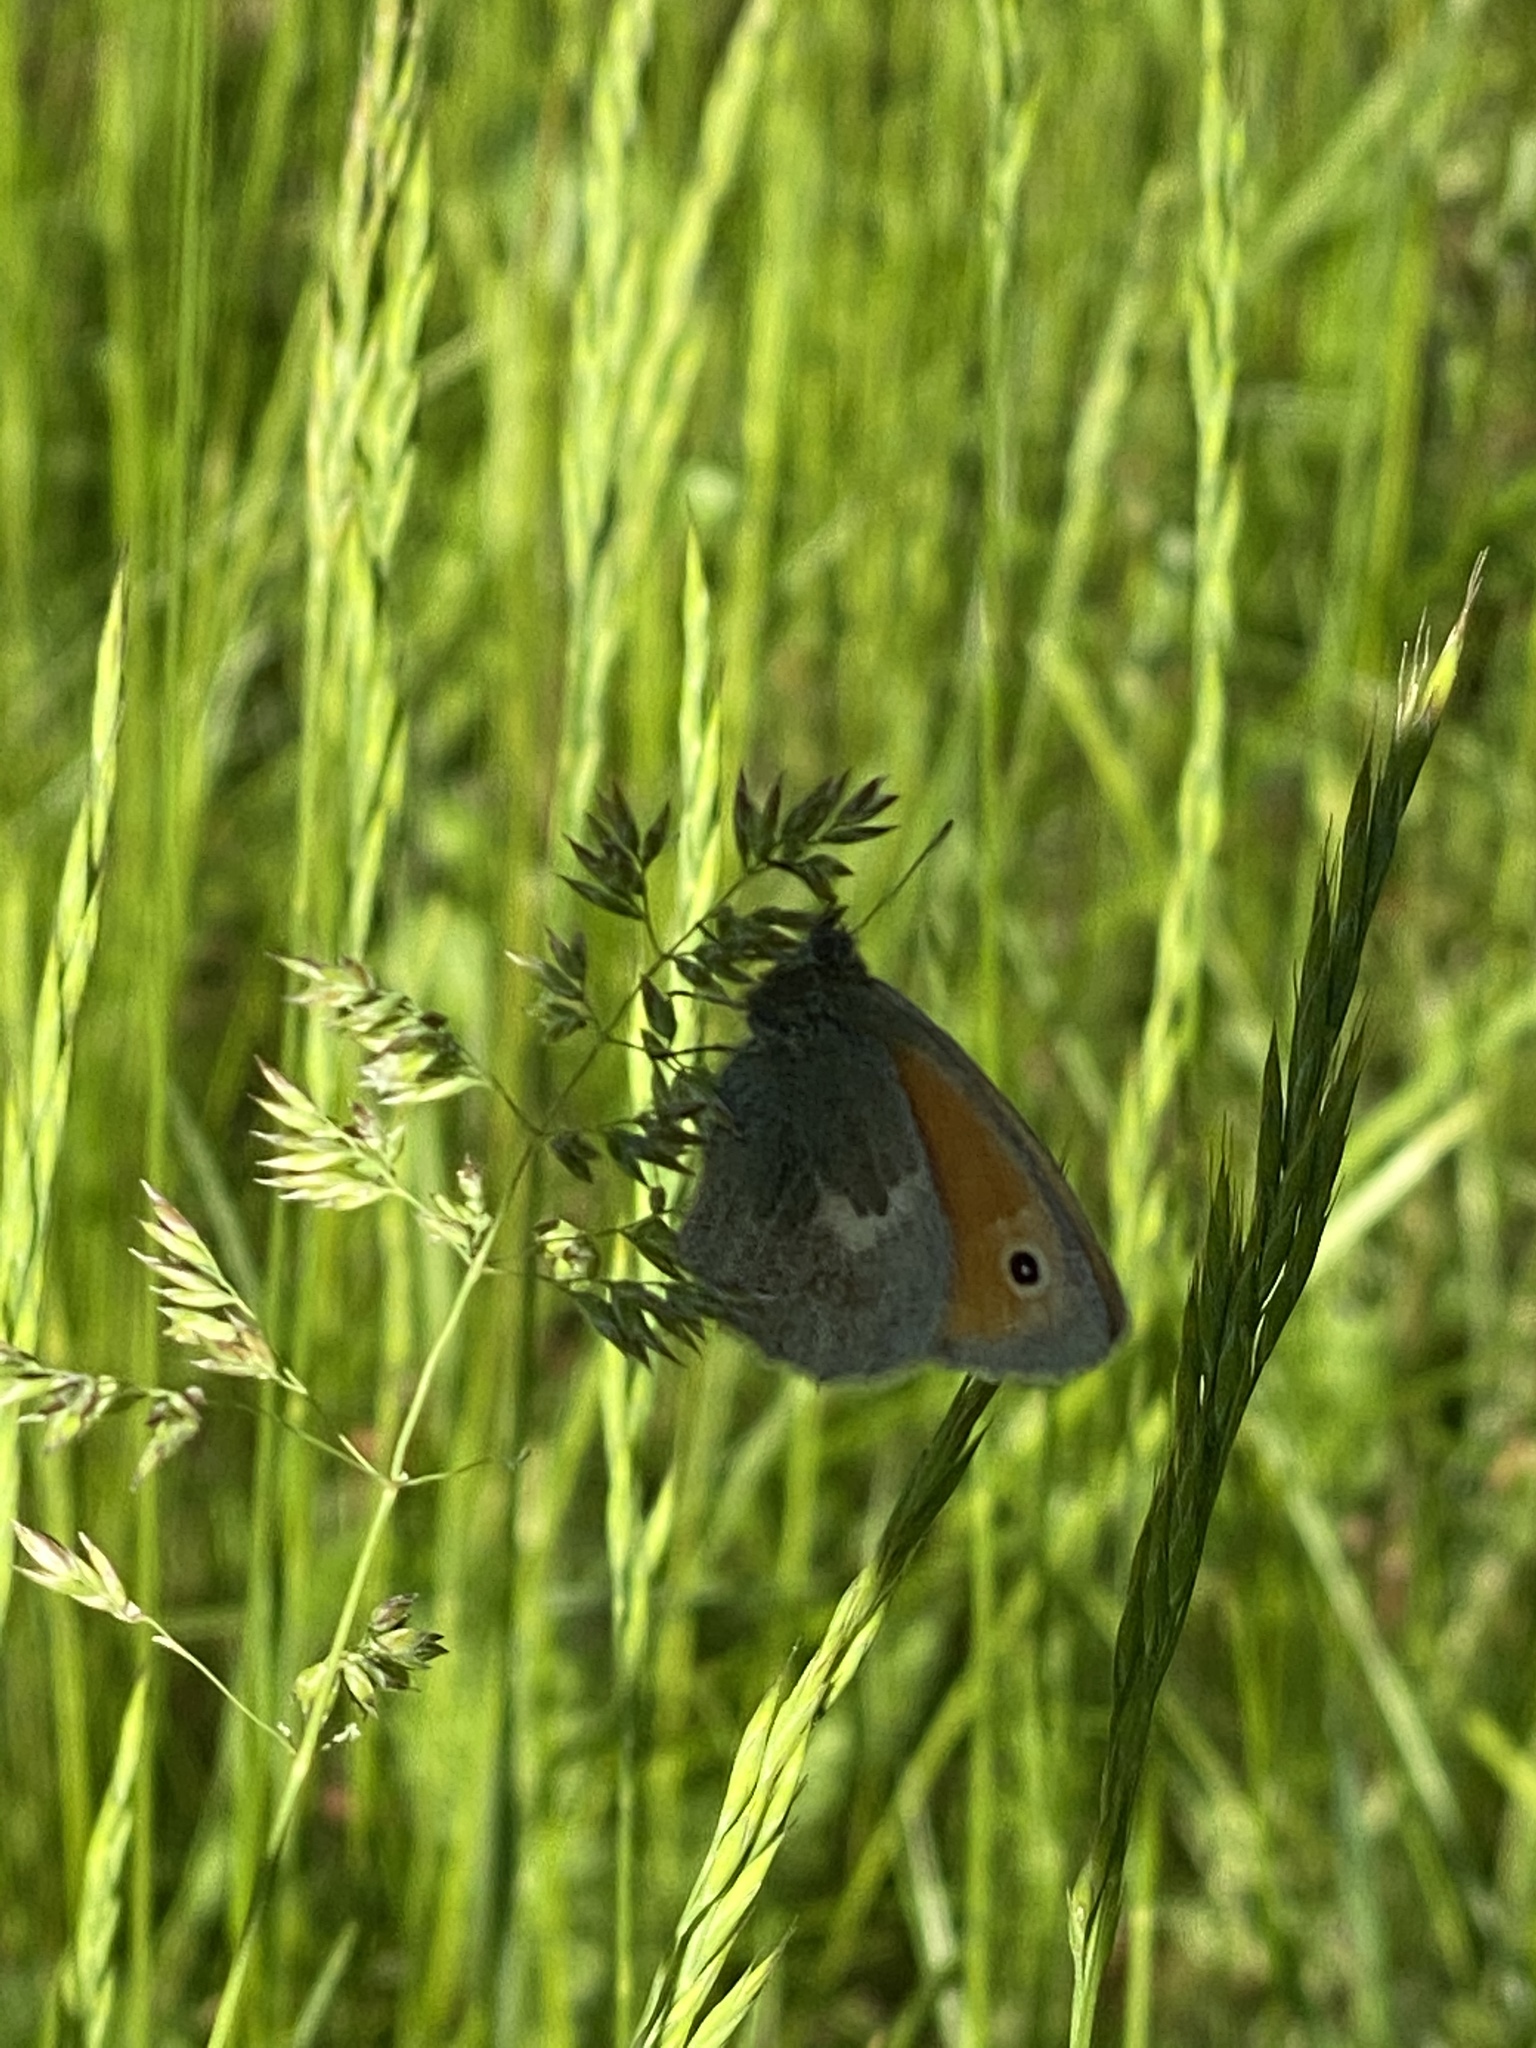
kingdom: Animalia
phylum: Arthropoda
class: Insecta
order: Lepidoptera
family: Nymphalidae
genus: Coenonympha
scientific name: Coenonympha pamphilus
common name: Small heath
